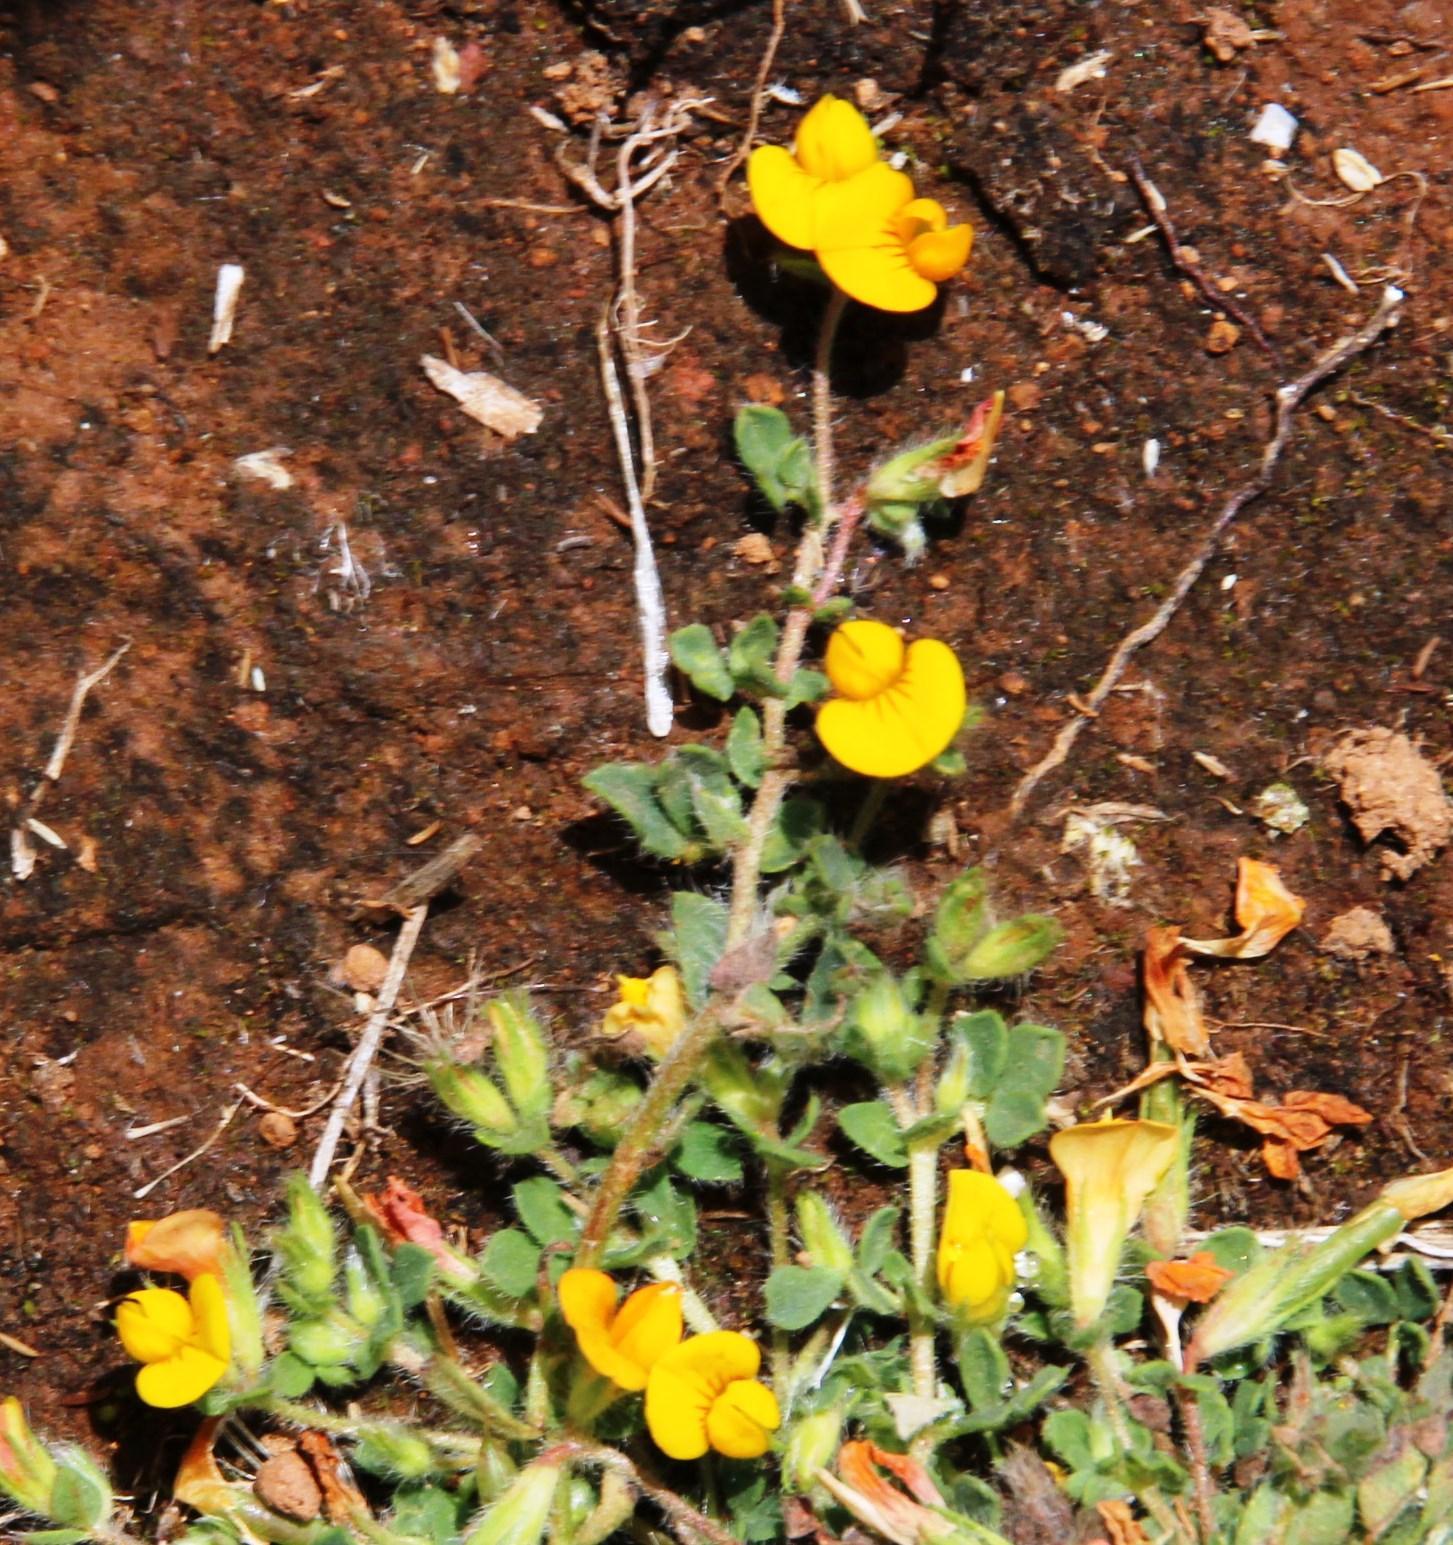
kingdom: Plantae
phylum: Tracheophyta
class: Magnoliopsida
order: Fabales
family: Fabaceae
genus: Lotus
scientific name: Lotus glaucus
